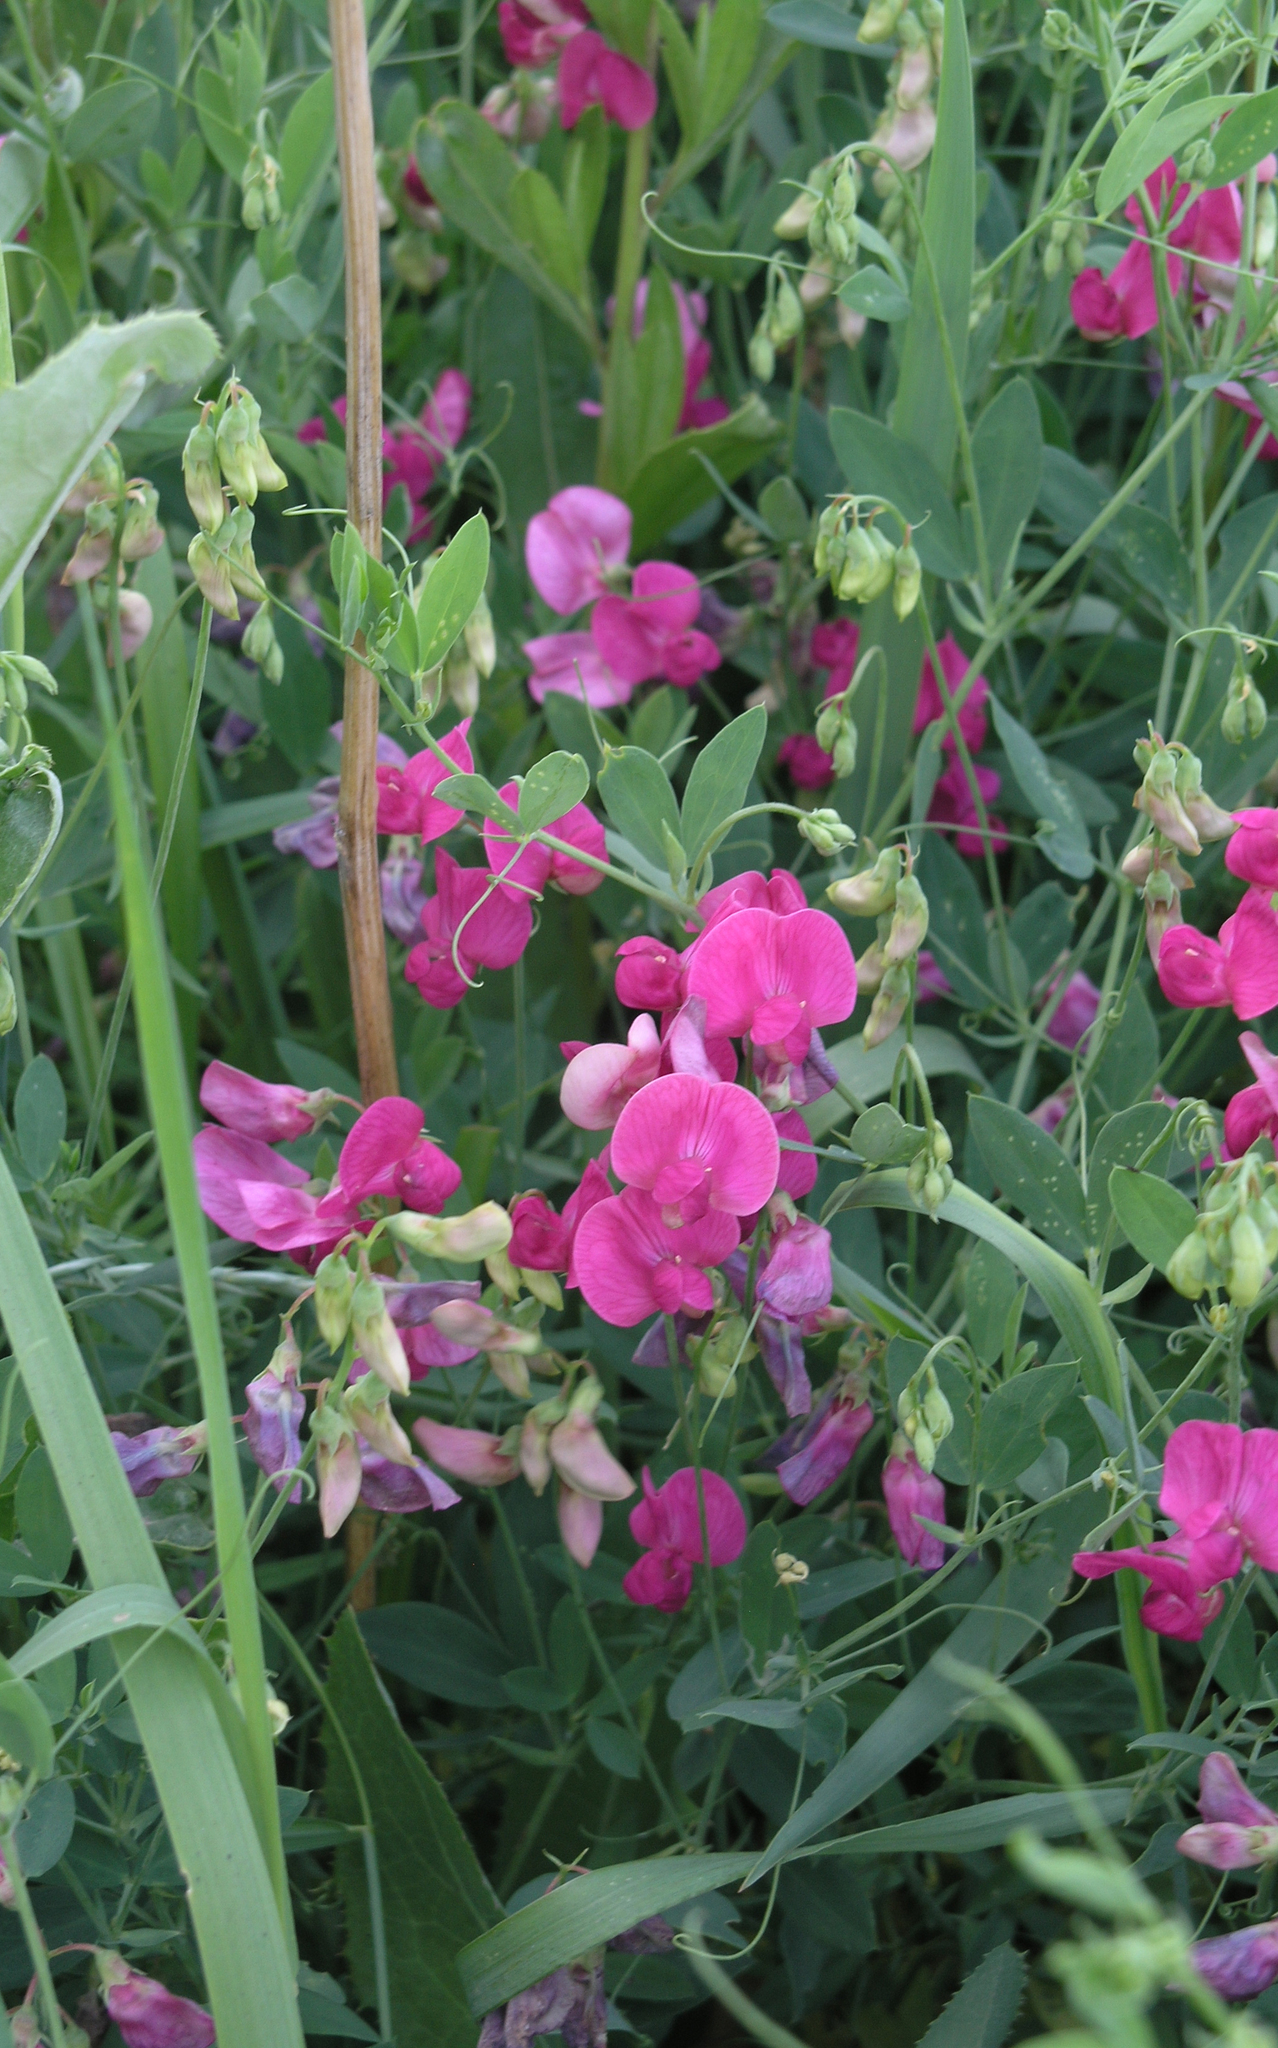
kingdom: Plantae
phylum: Tracheophyta
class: Magnoliopsida
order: Fabales
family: Fabaceae
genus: Lathyrus
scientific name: Lathyrus tuberosus
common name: Tuberous pea
